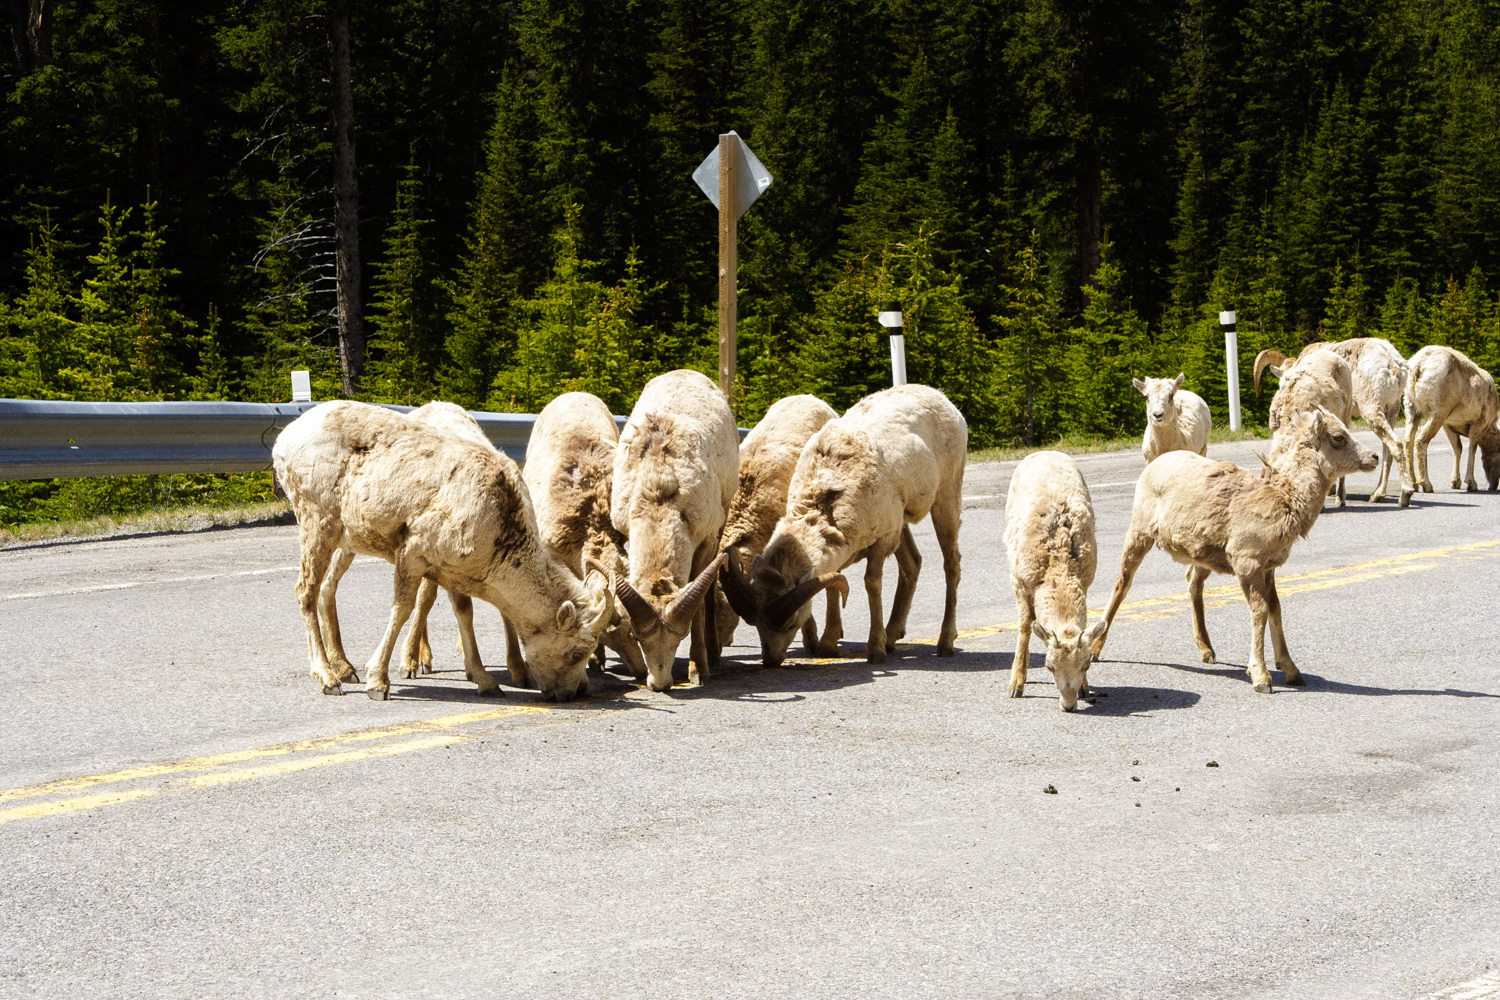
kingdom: Animalia
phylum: Chordata
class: Mammalia
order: Artiodactyla
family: Bovidae
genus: Ovis
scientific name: Ovis canadensis
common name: Bighorn sheep
